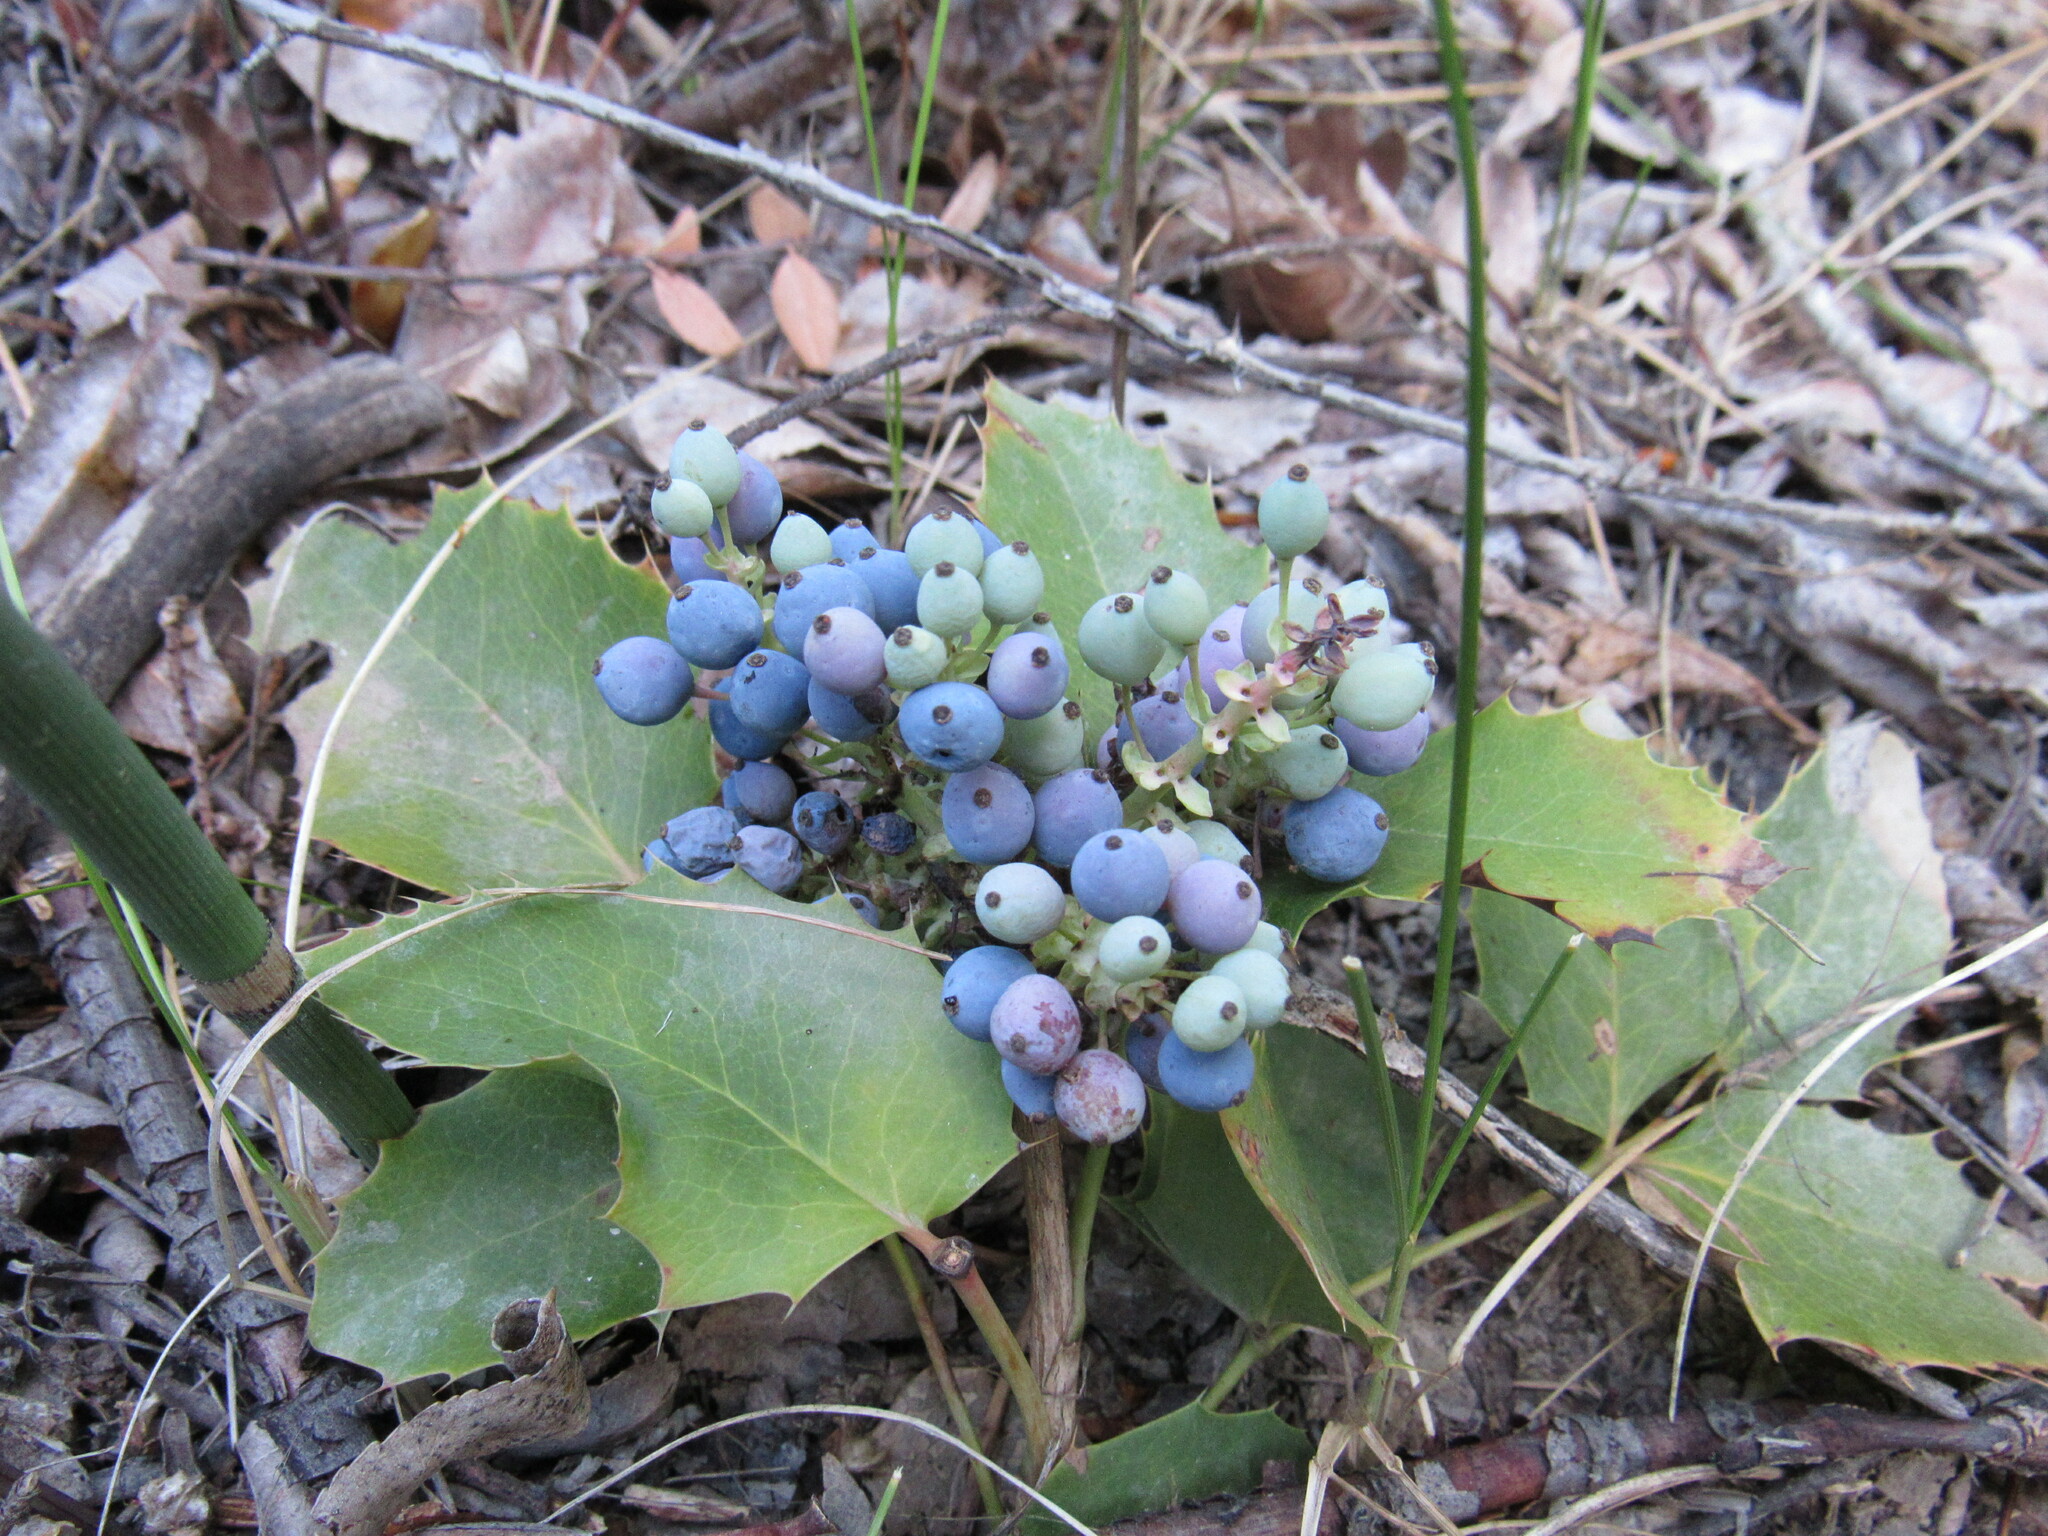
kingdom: Plantae
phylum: Tracheophyta
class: Magnoliopsida
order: Ranunculales
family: Berberidaceae
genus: Mahonia
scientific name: Mahonia repens
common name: Creeping oregon-grape
